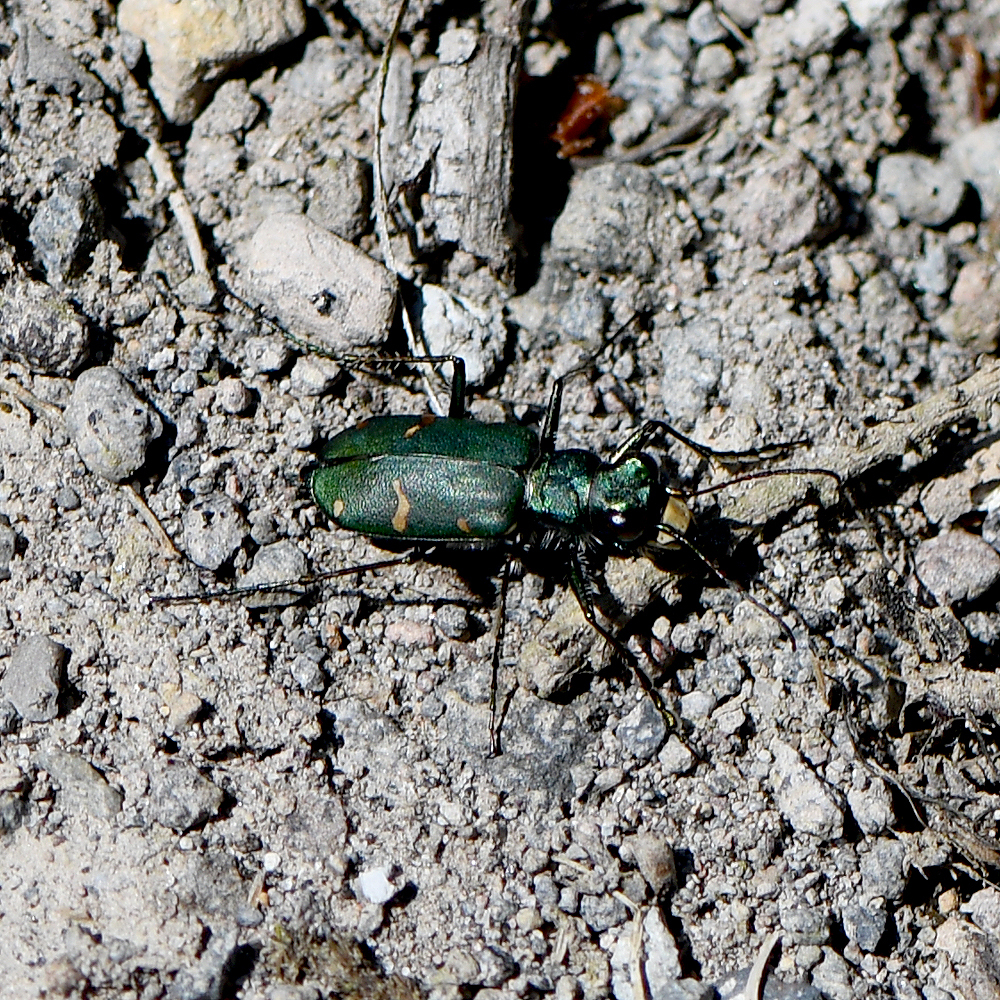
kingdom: Animalia
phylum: Arthropoda
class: Insecta
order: Coleoptera
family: Carabidae
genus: Cicindela
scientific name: Cicindela longilabris
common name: Boreal long-lipped tiger beetle
